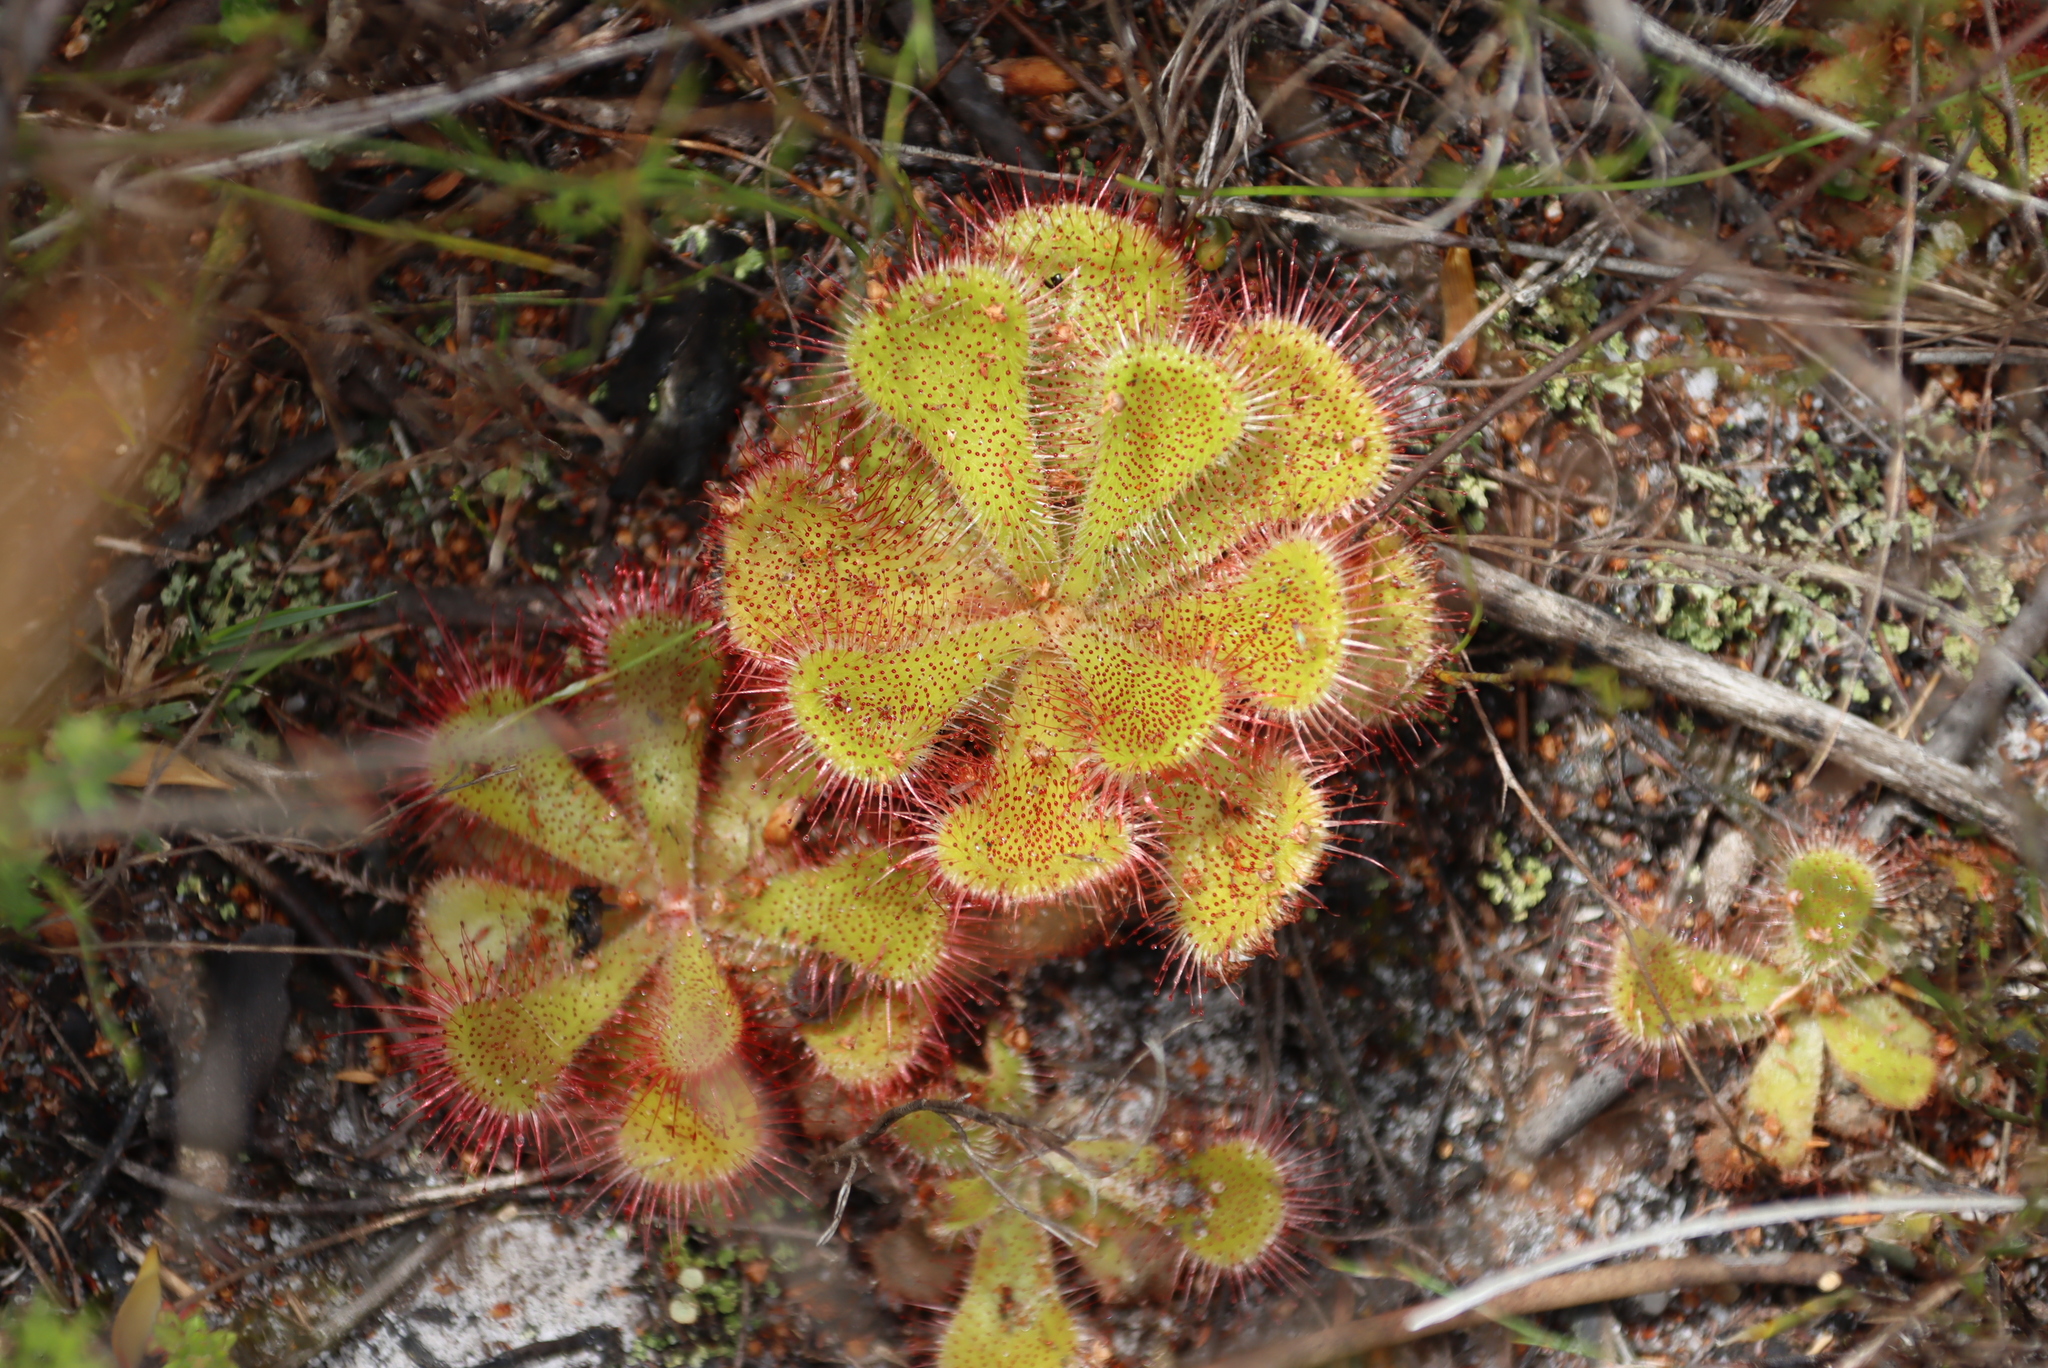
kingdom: Plantae
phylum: Tracheophyta
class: Magnoliopsida
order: Caryophyllales
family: Droseraceae
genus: Drosera
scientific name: Drosera cuneifolia
